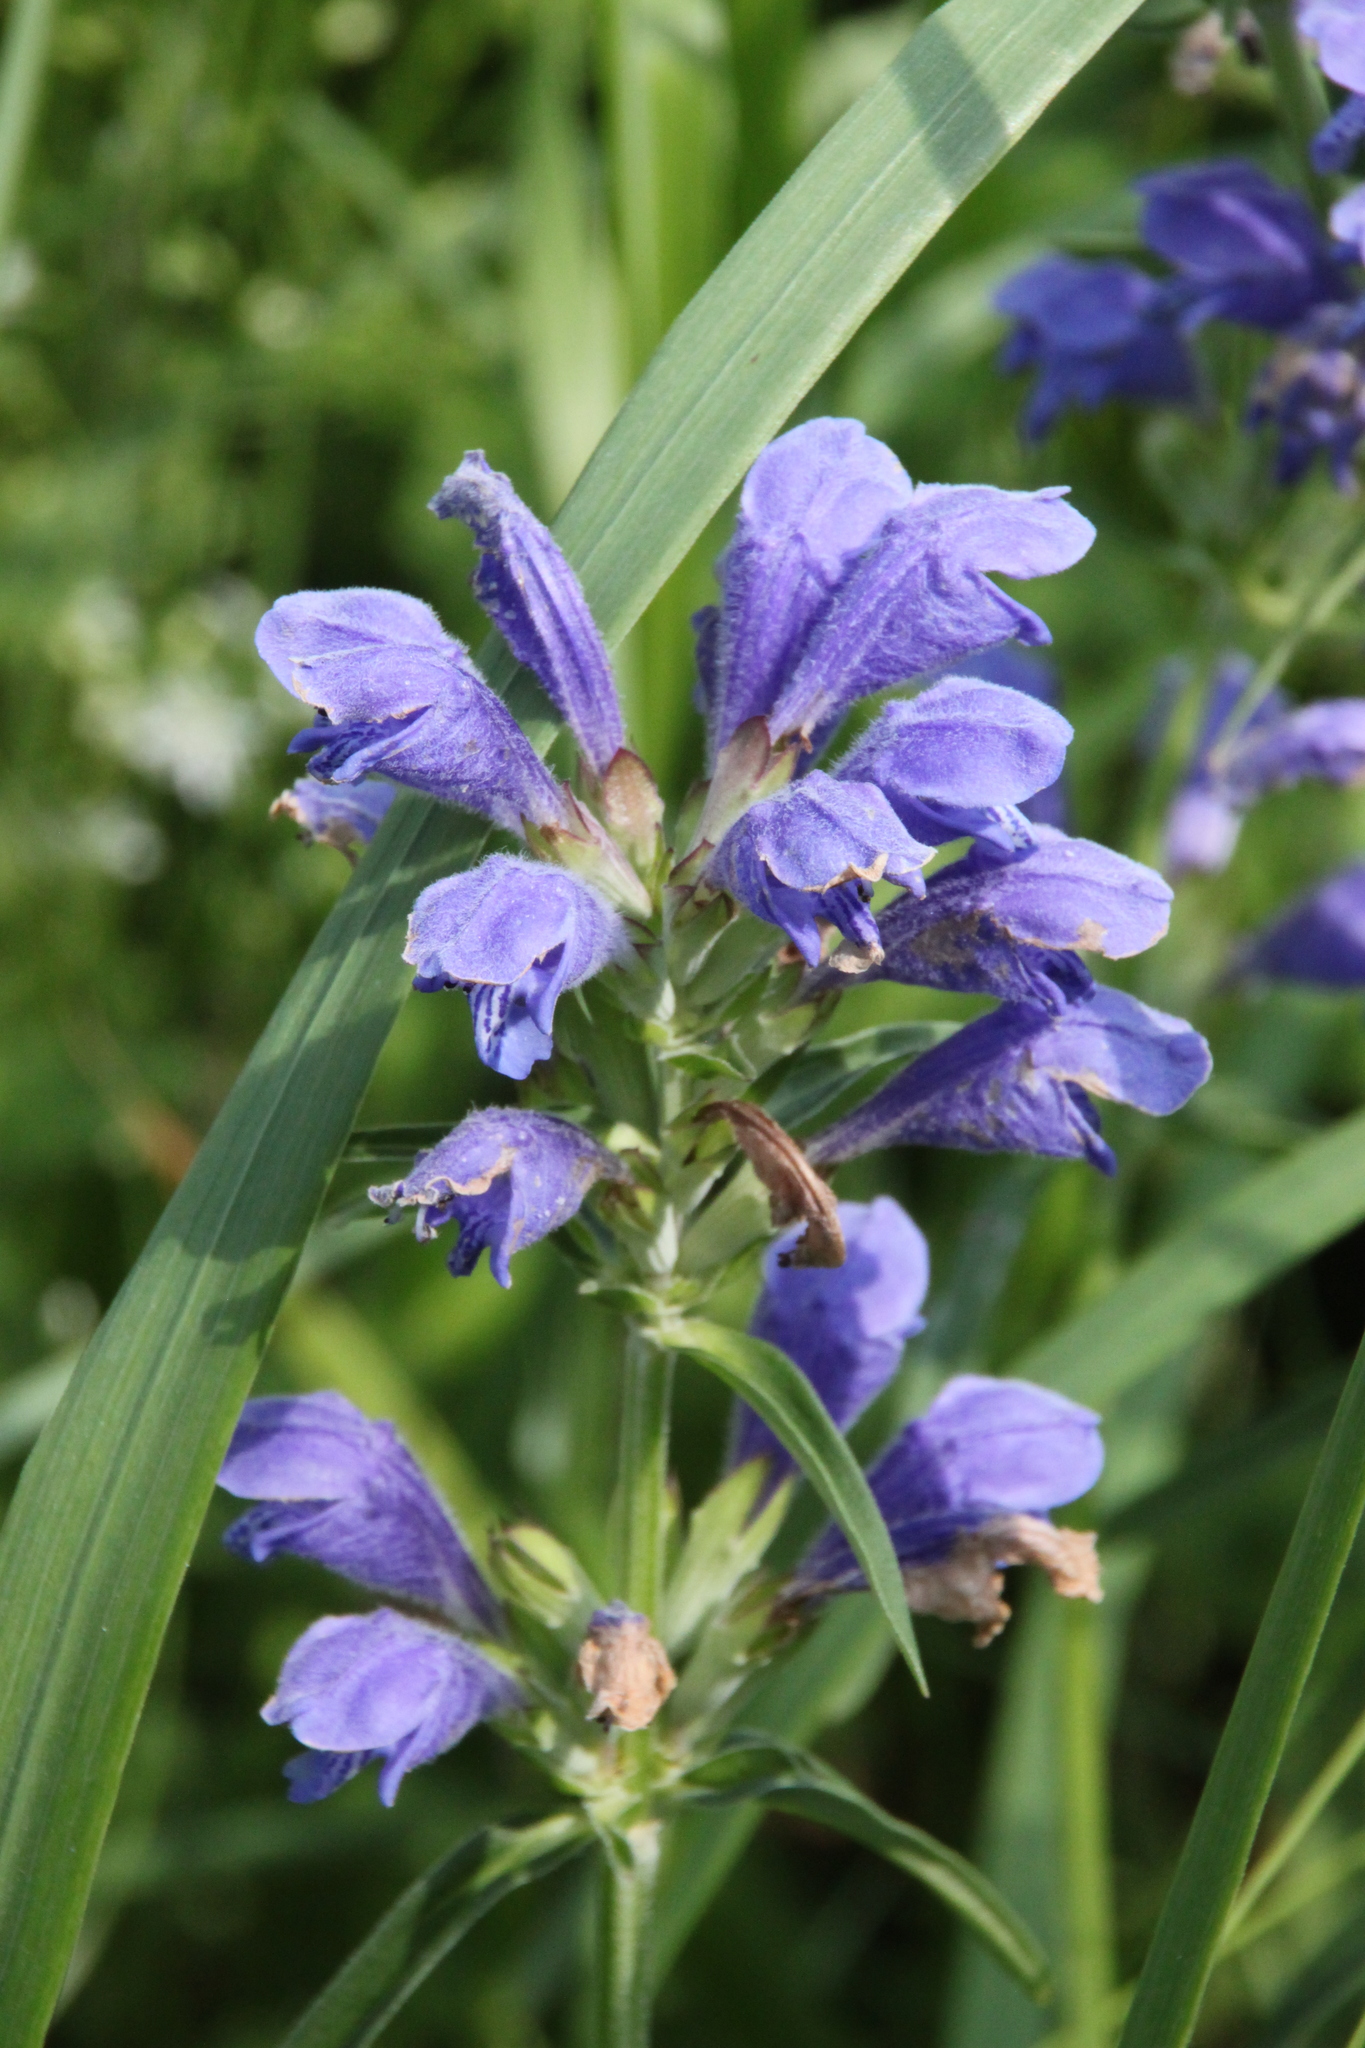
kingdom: Plantae
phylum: Tracheophyta
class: Magnoliopsida
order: Lamiales
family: Lamiaceae
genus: Dracocephalum
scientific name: Dracocephalum ruyschiana
